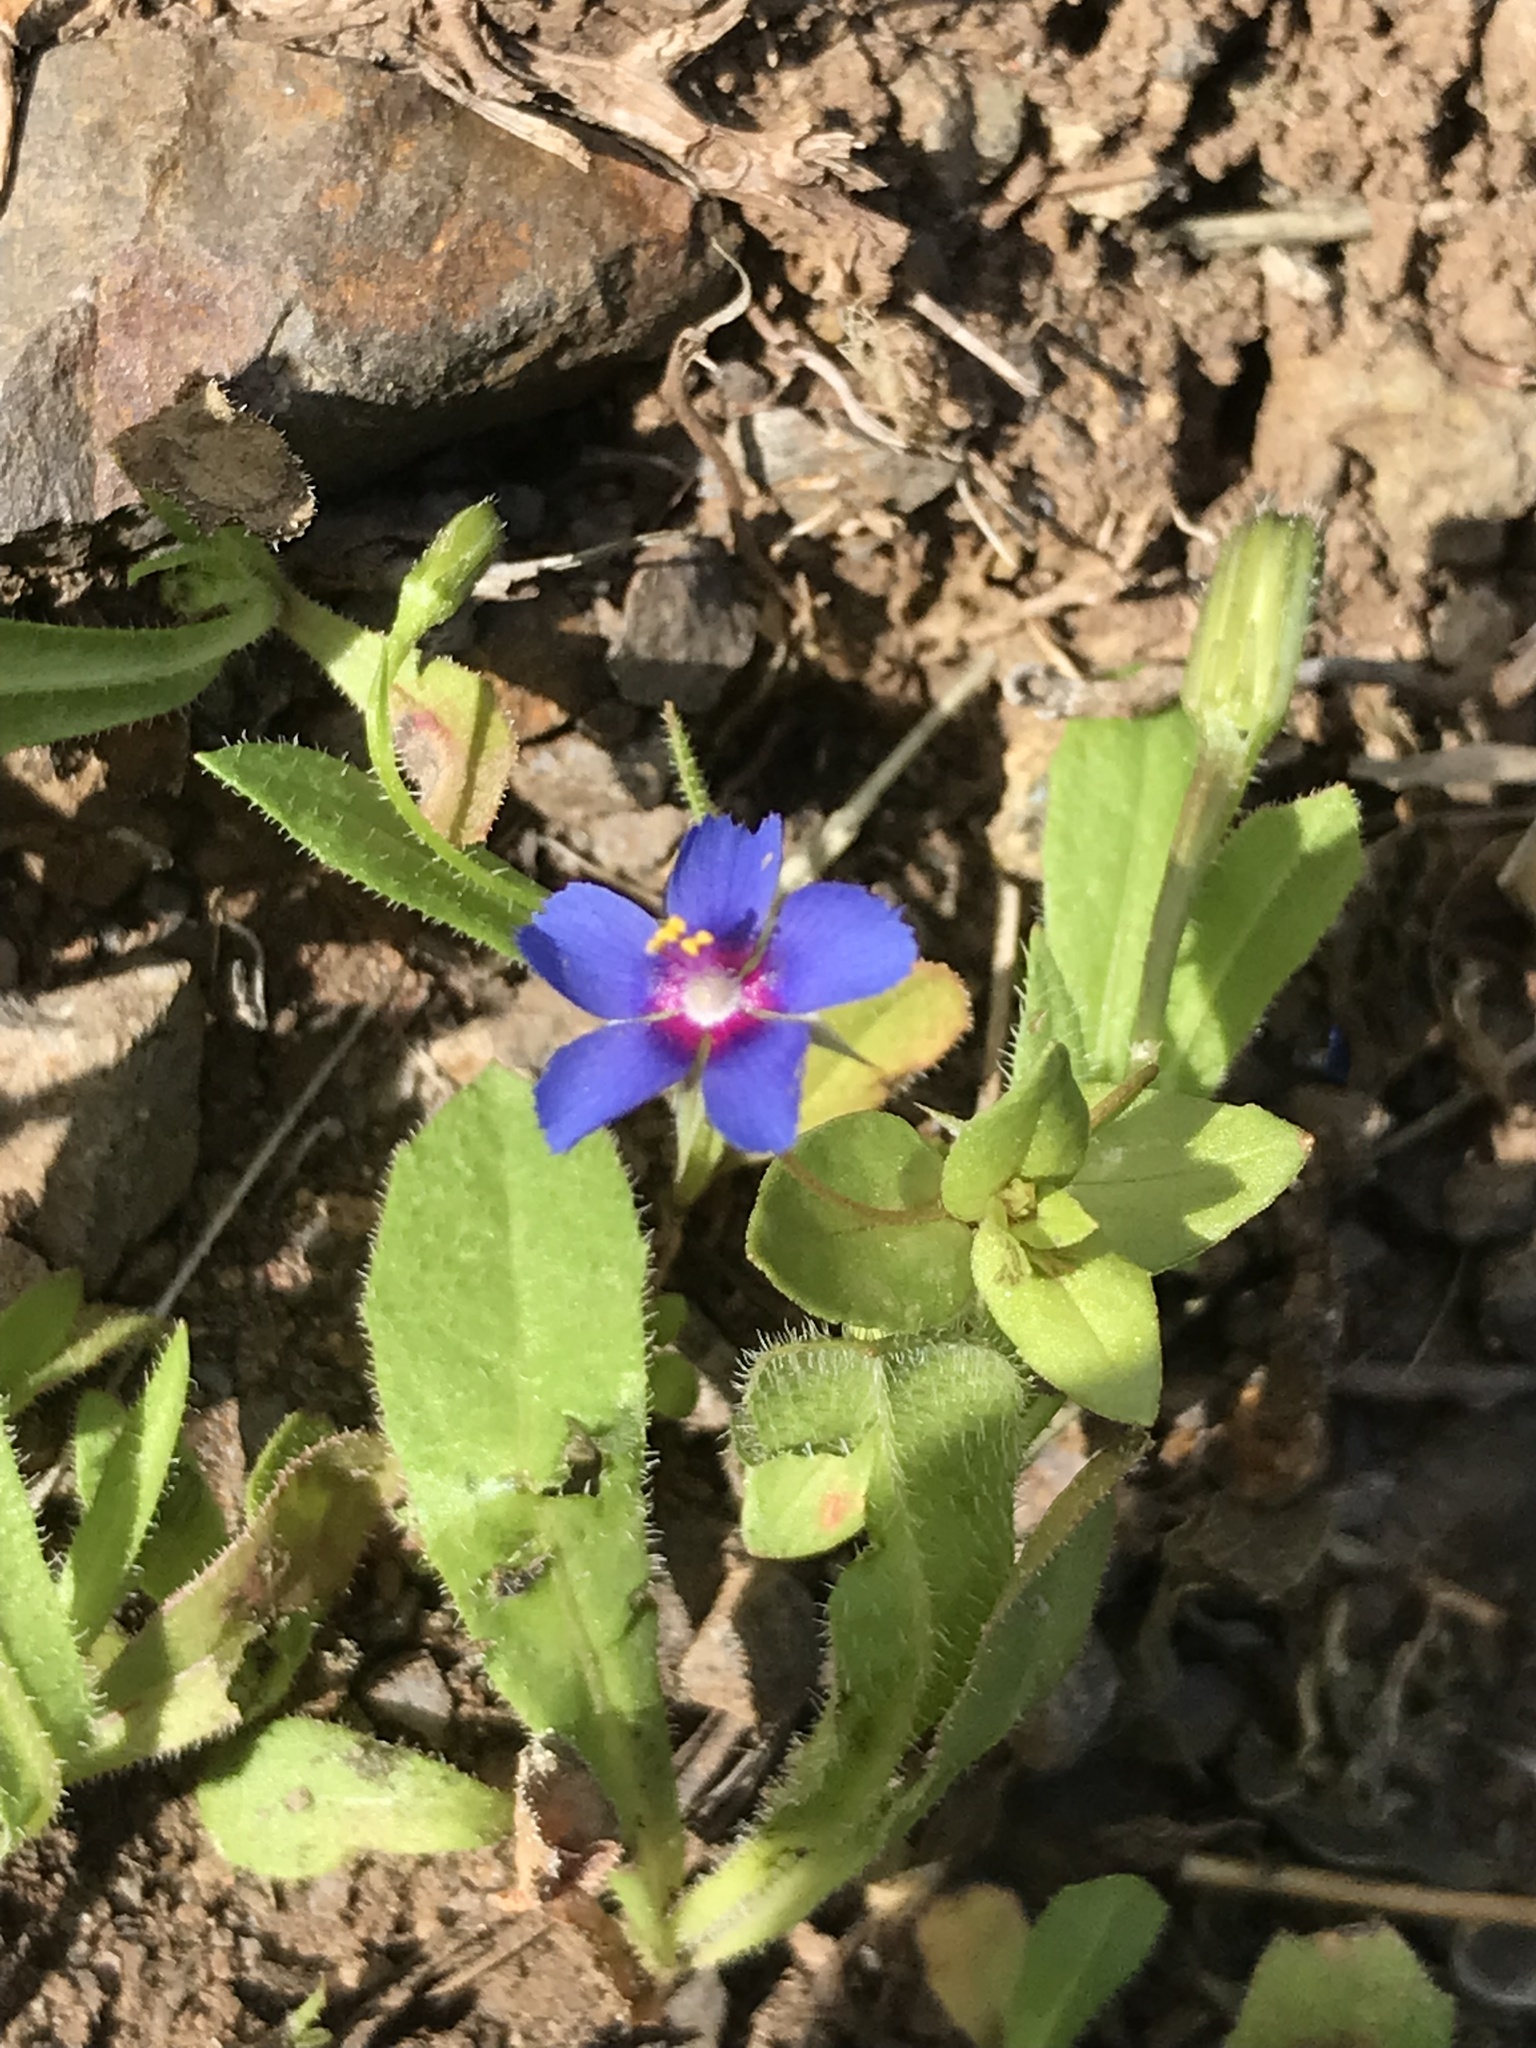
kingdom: Plantae
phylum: Tracheophyta
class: Magnoliopsida
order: Ericales
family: Primulaceae
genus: Lysimachia
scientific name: Lysimachia loeflingii
